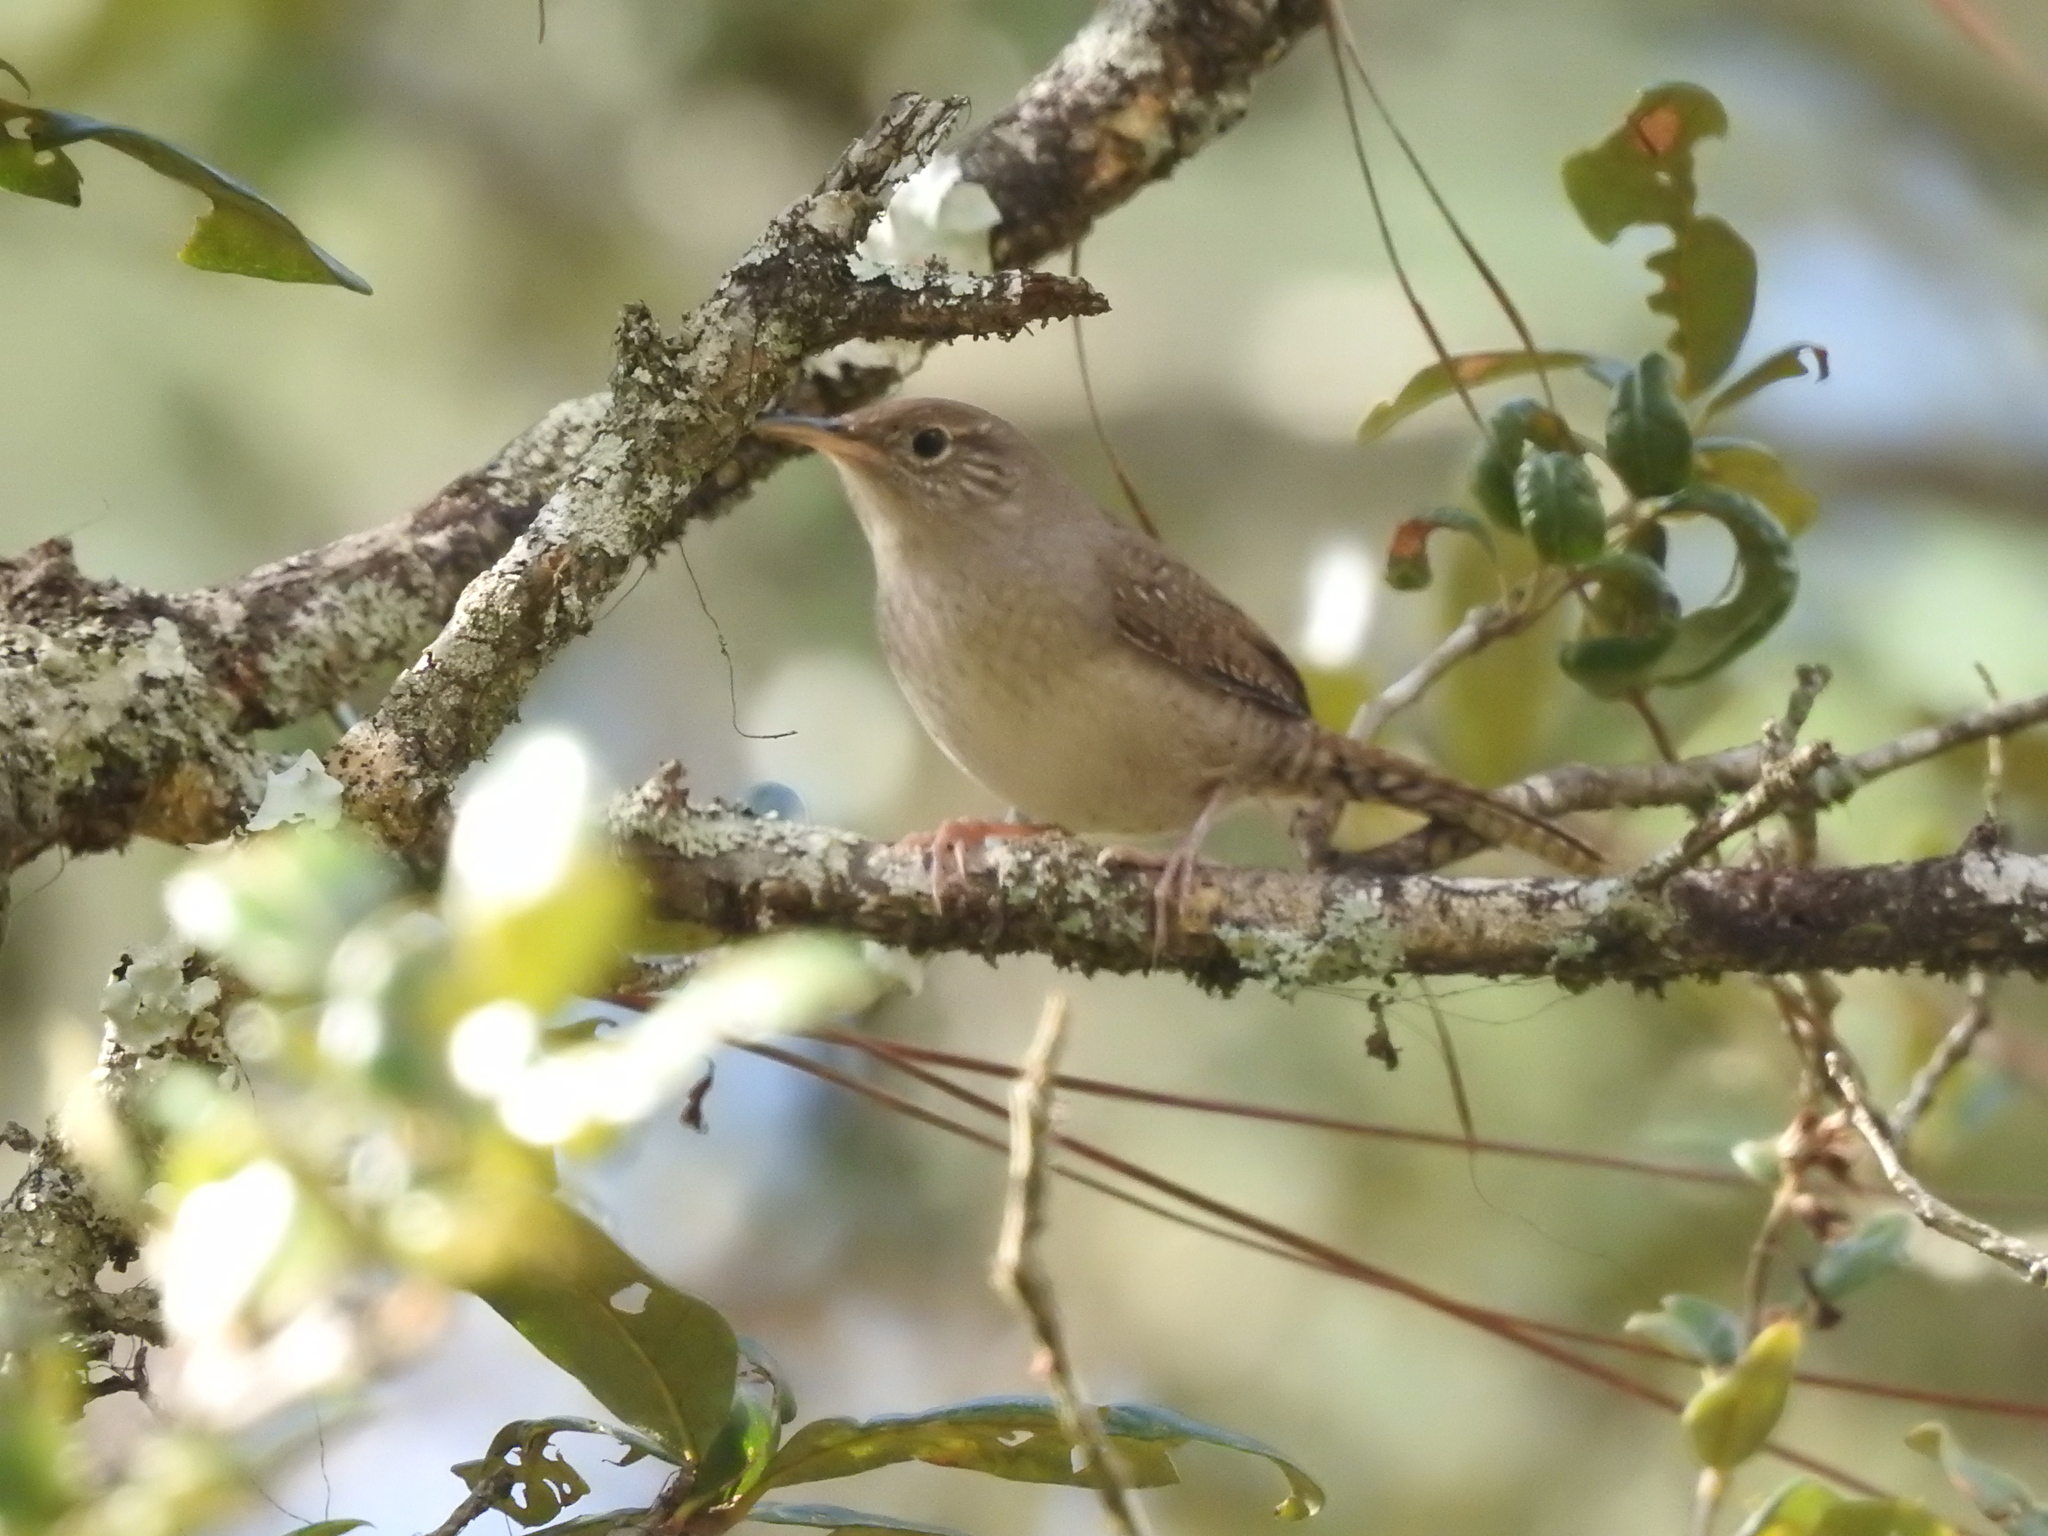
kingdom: Animalia
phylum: Chordata
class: Aves
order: Passeriformes
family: Troglodytidae
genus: Troglodytes
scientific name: Troglodytes aedon
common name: House wren
